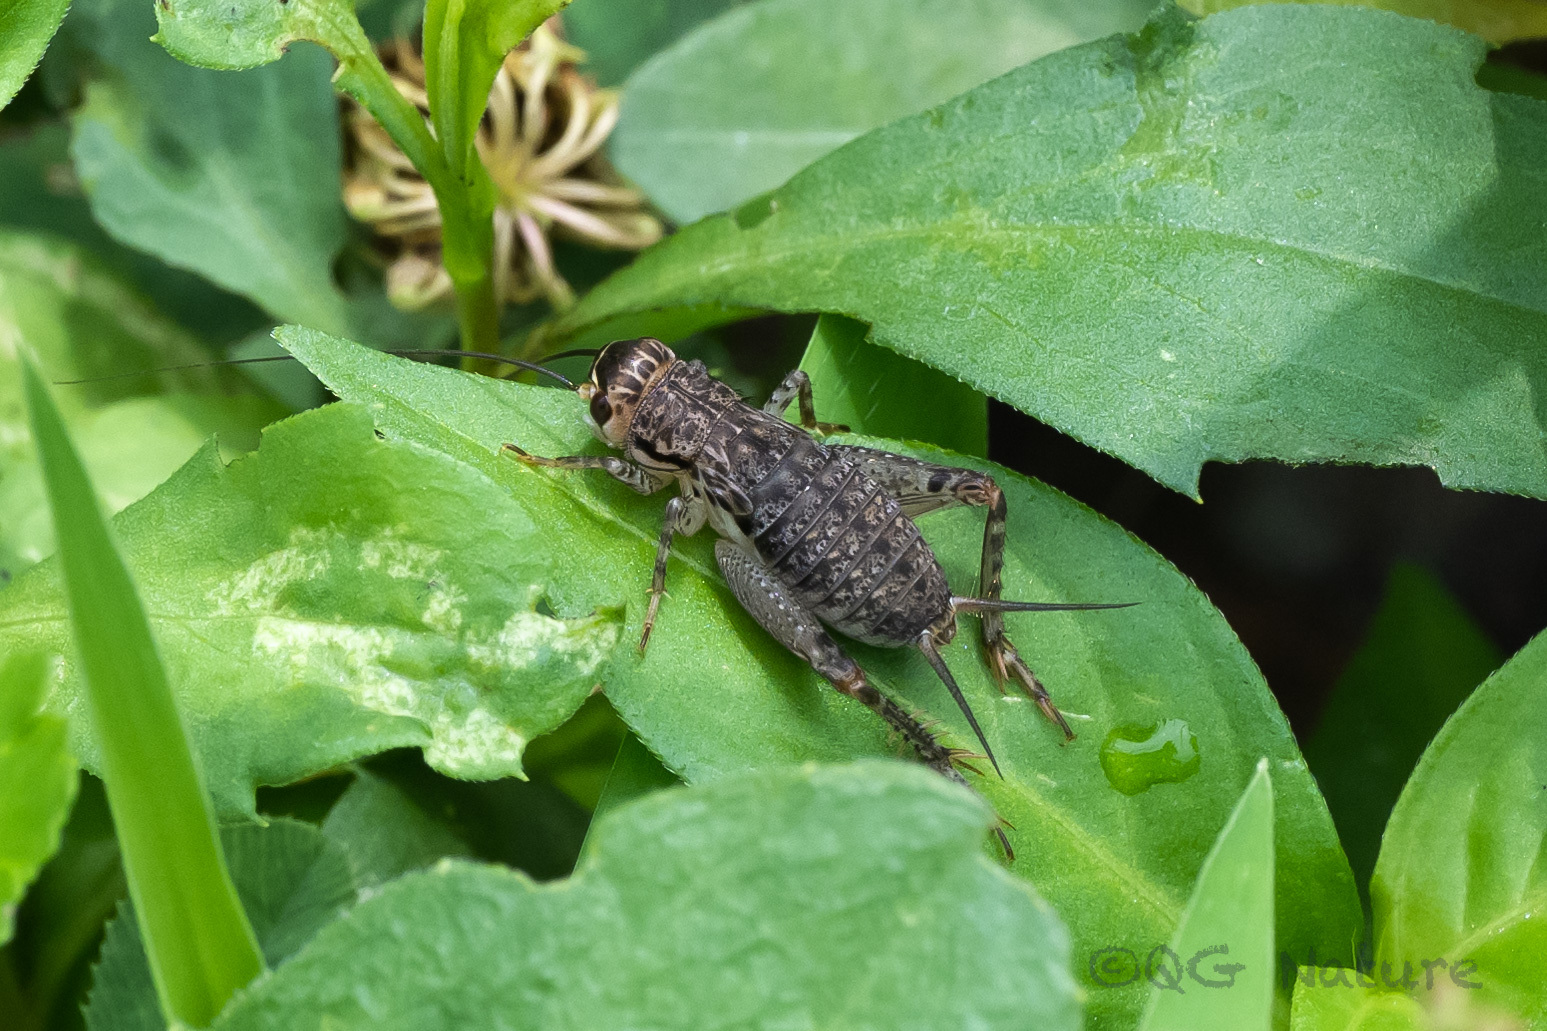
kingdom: Animalia
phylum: Arthropoda
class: Insecta
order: Orthoptera
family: Gryllidae
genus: Velarifictorus
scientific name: Velarifictorus micado
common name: Japanese burrowing cricket
